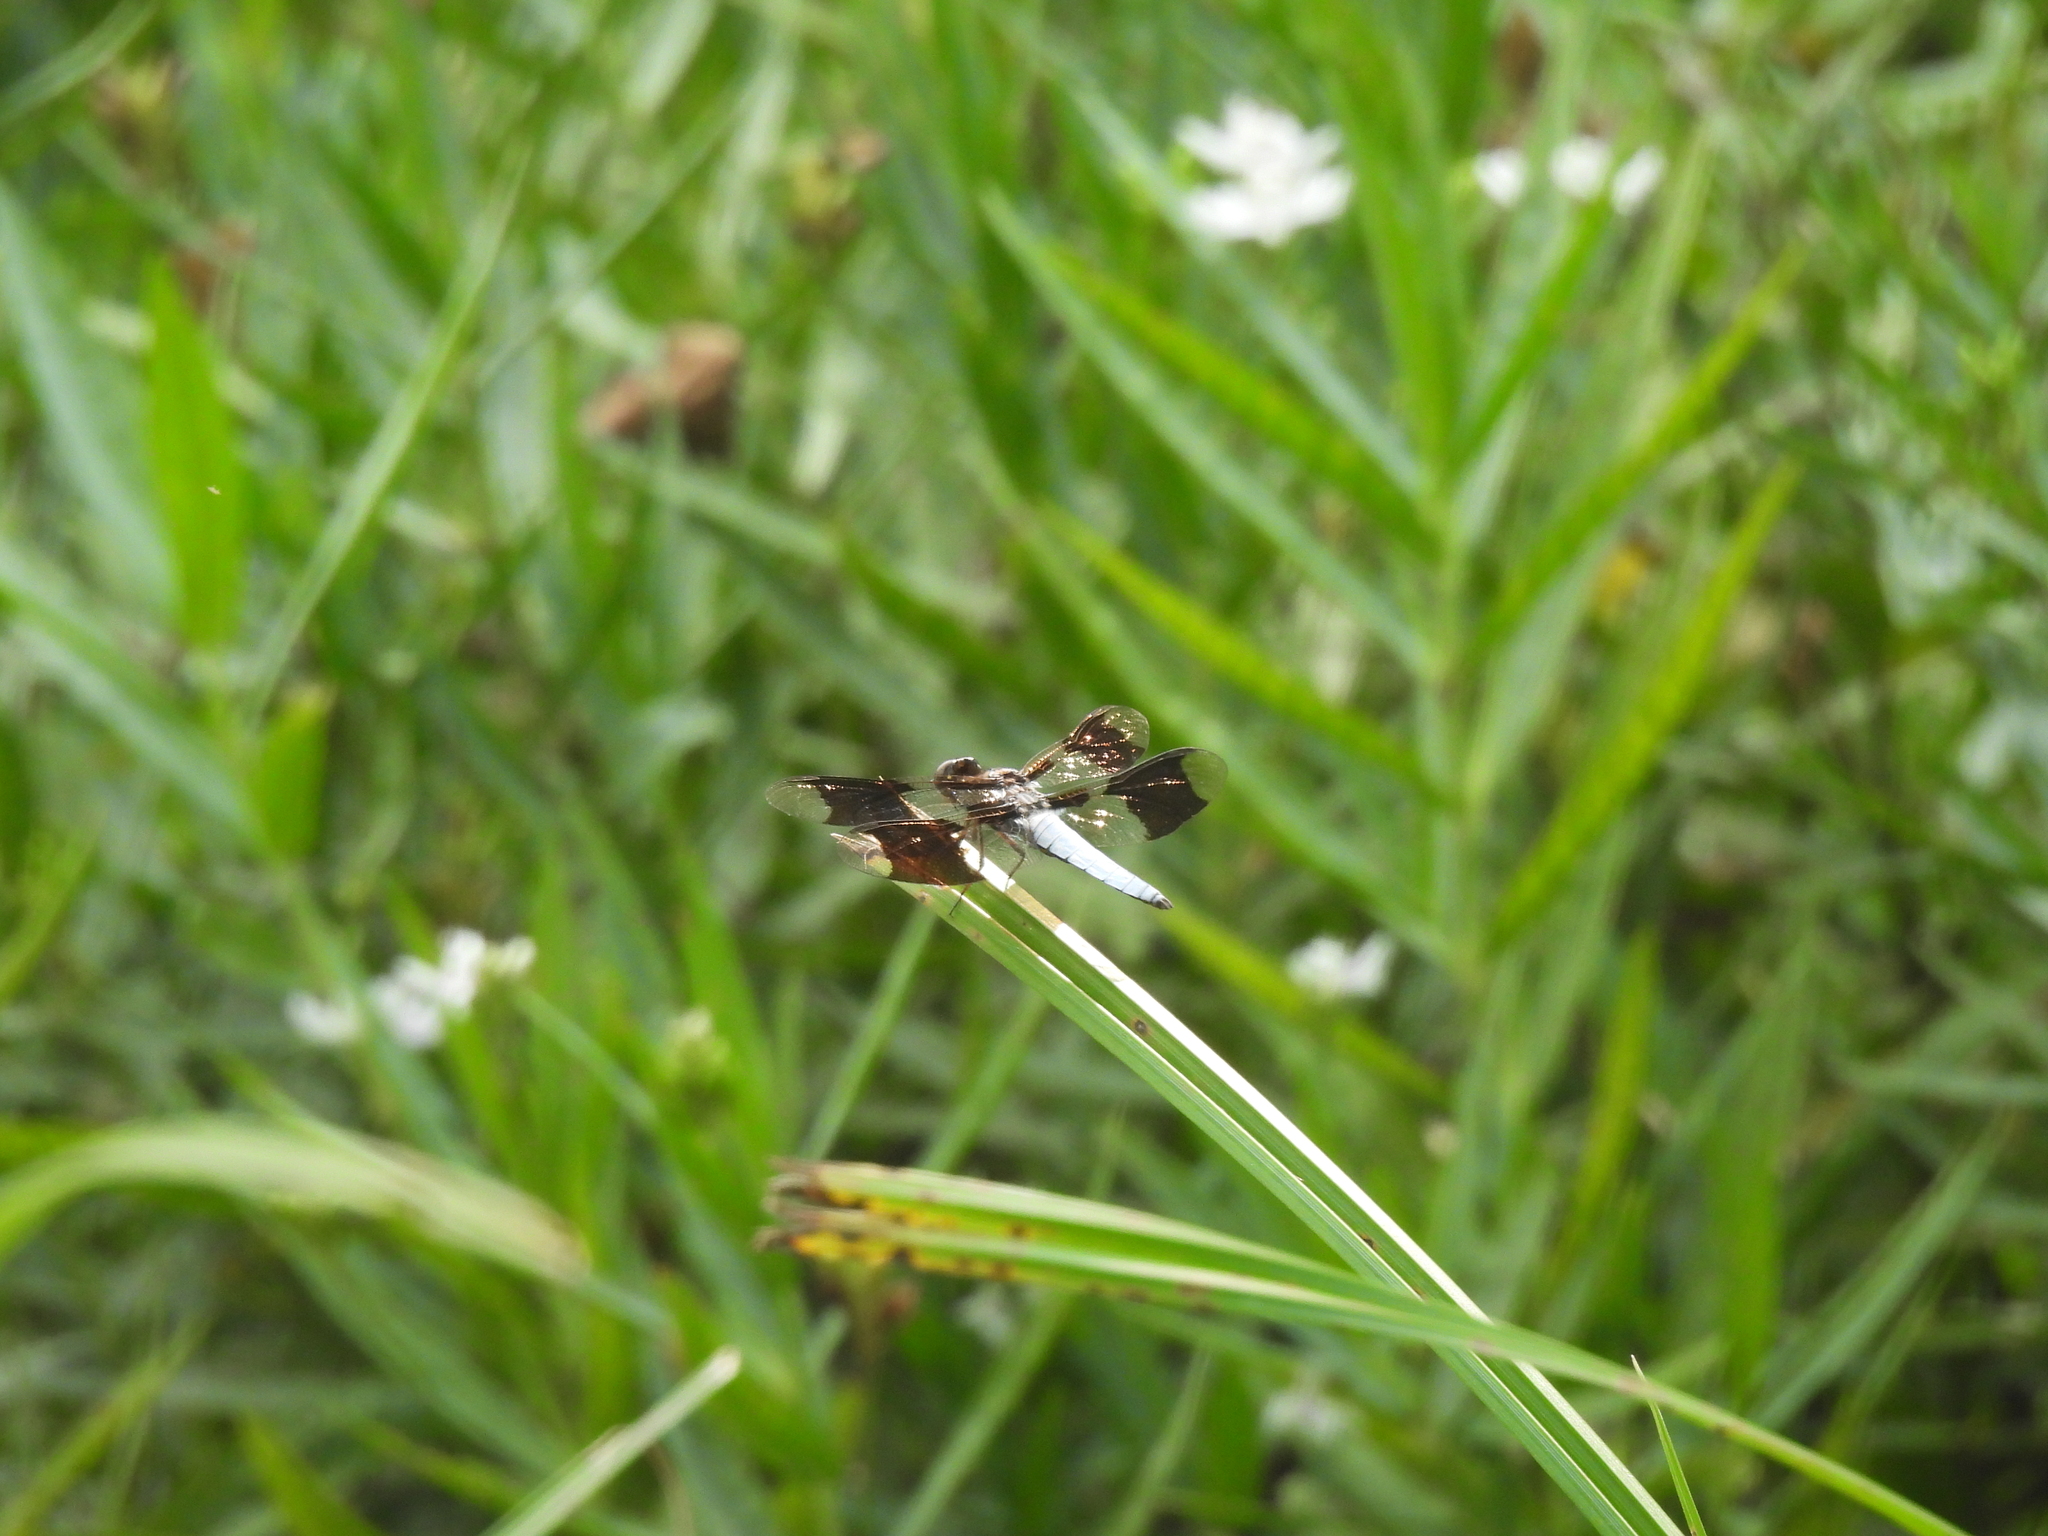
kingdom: Animalia
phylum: Arthropoda
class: Insecta
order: Odonata
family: Libellulidae
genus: Plathemis
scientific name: Plathemis lydia
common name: Common whitetail
